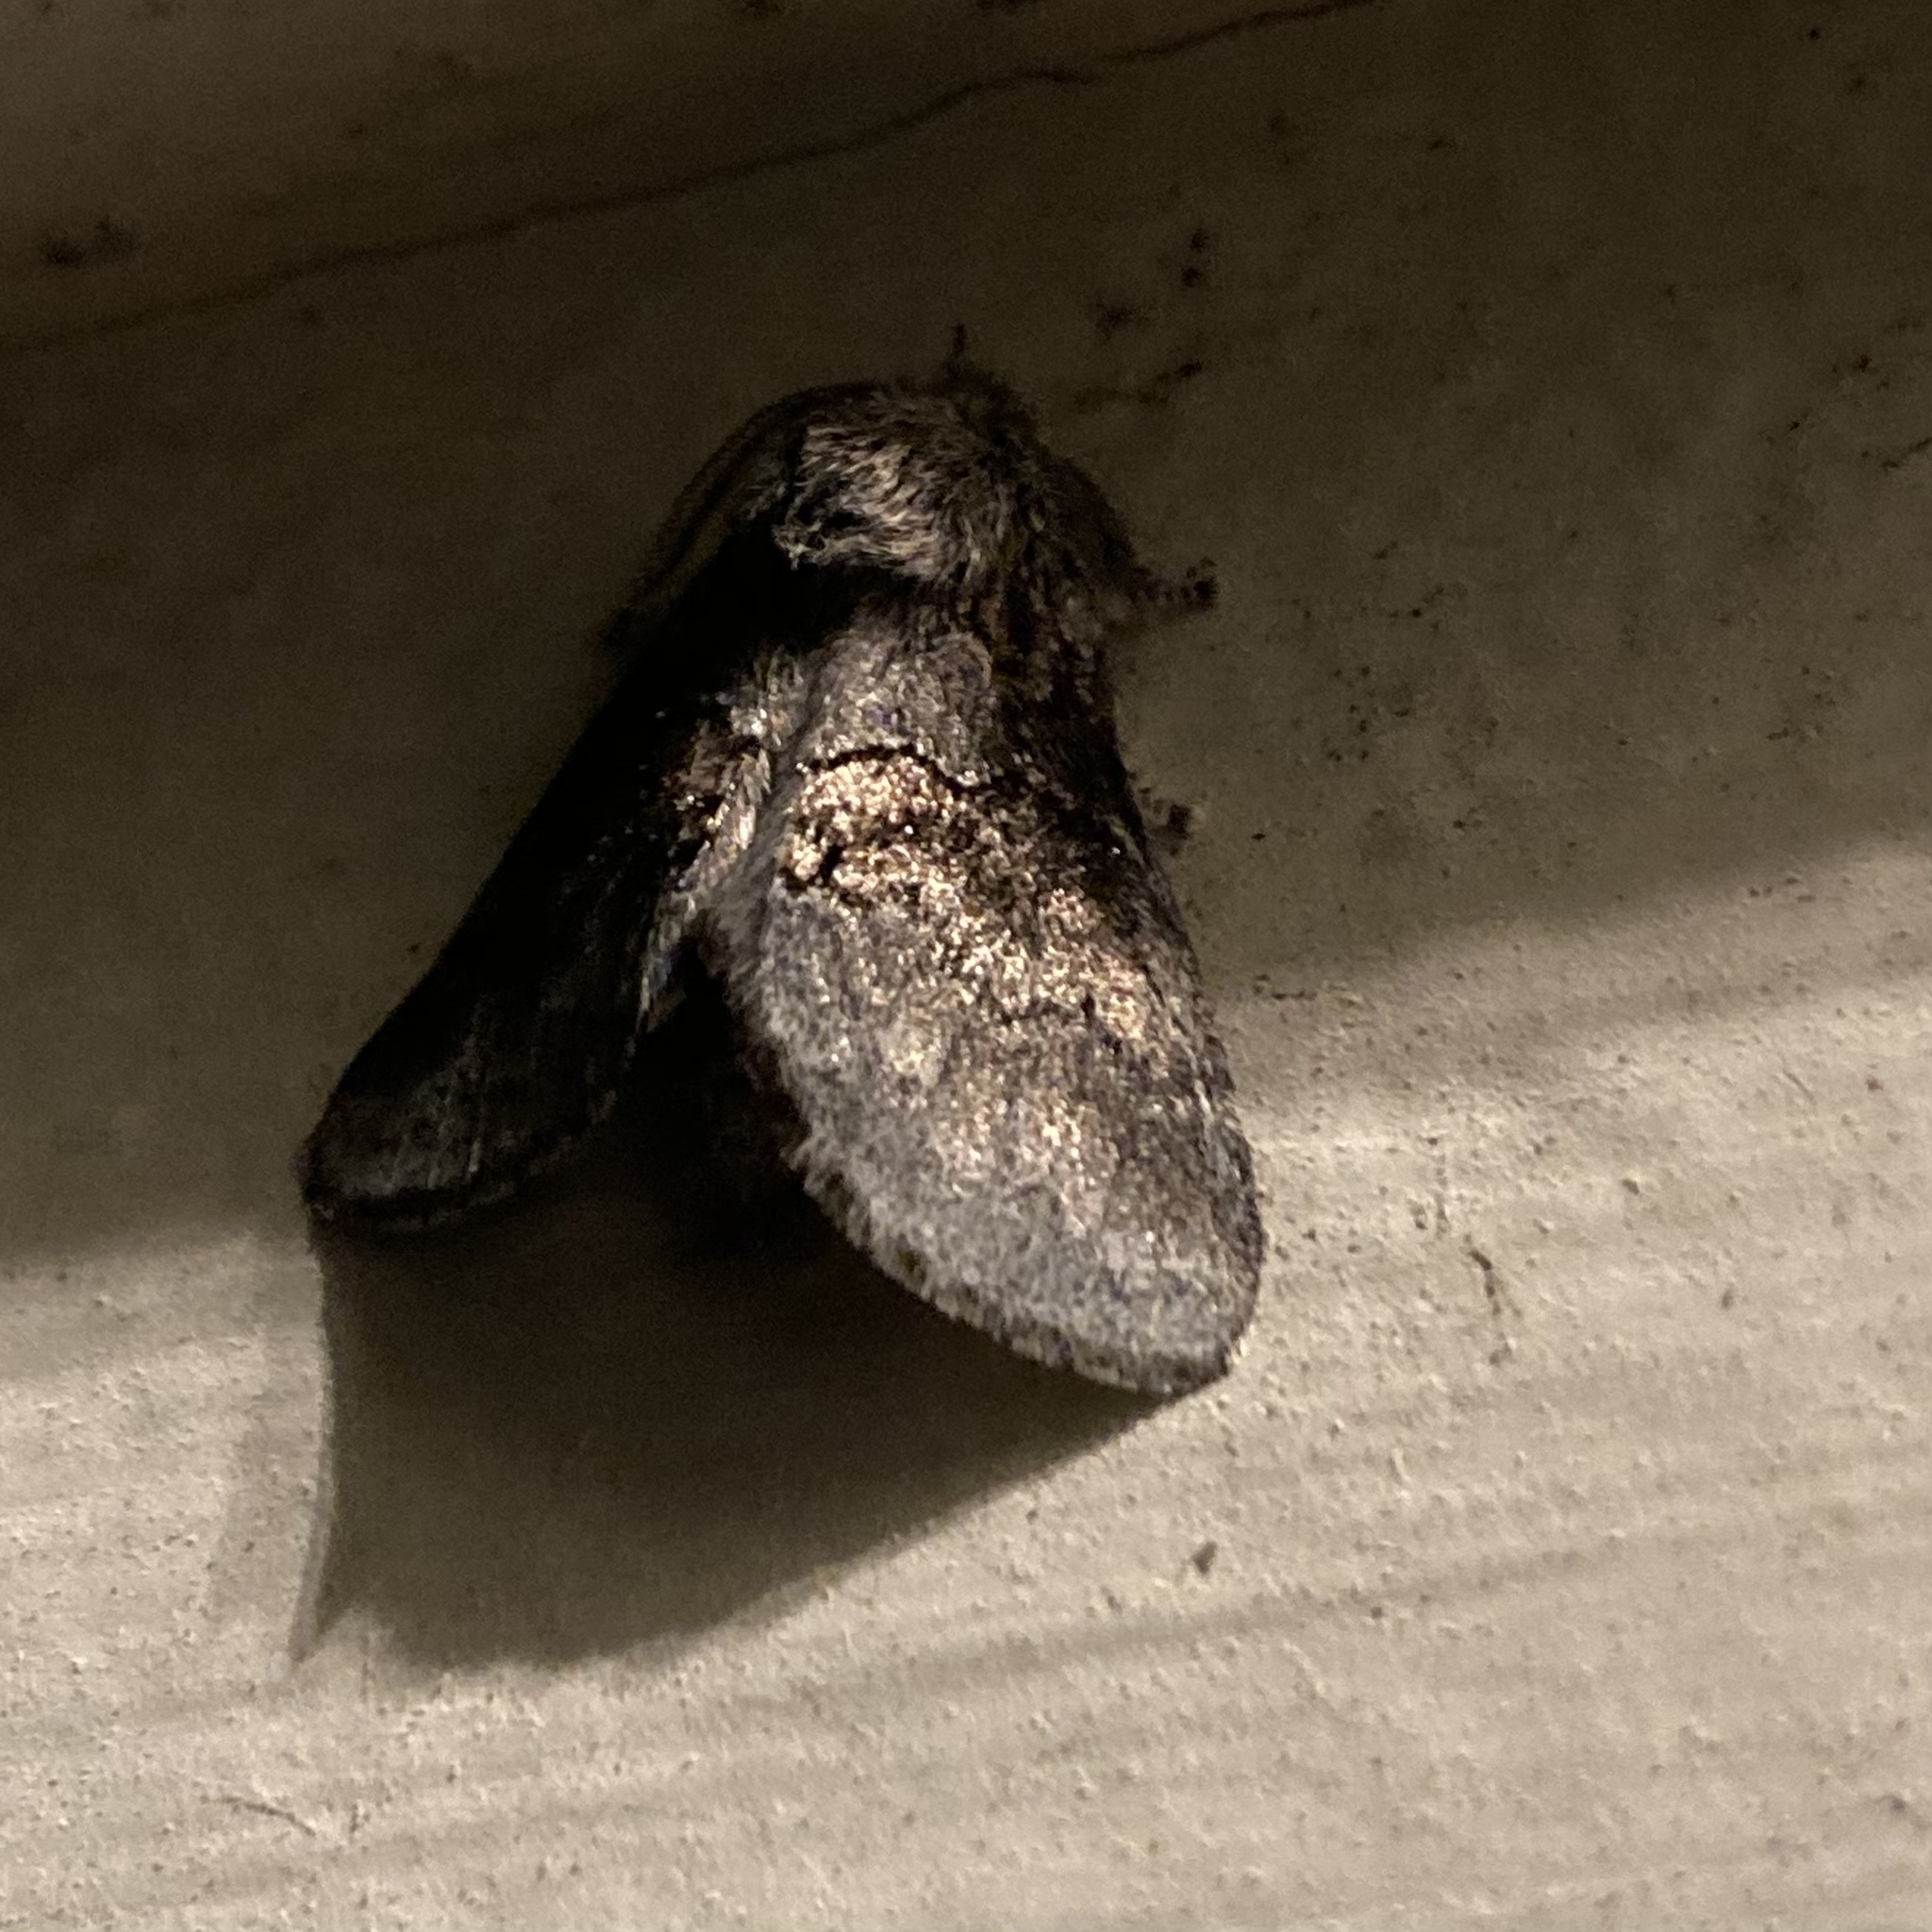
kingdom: Animalia
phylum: Arthropoda
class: Insecta
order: Lepidoptera
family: Notodontidae
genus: Gluphisia
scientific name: Gluphisia septentrionis
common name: Common gluphisia
